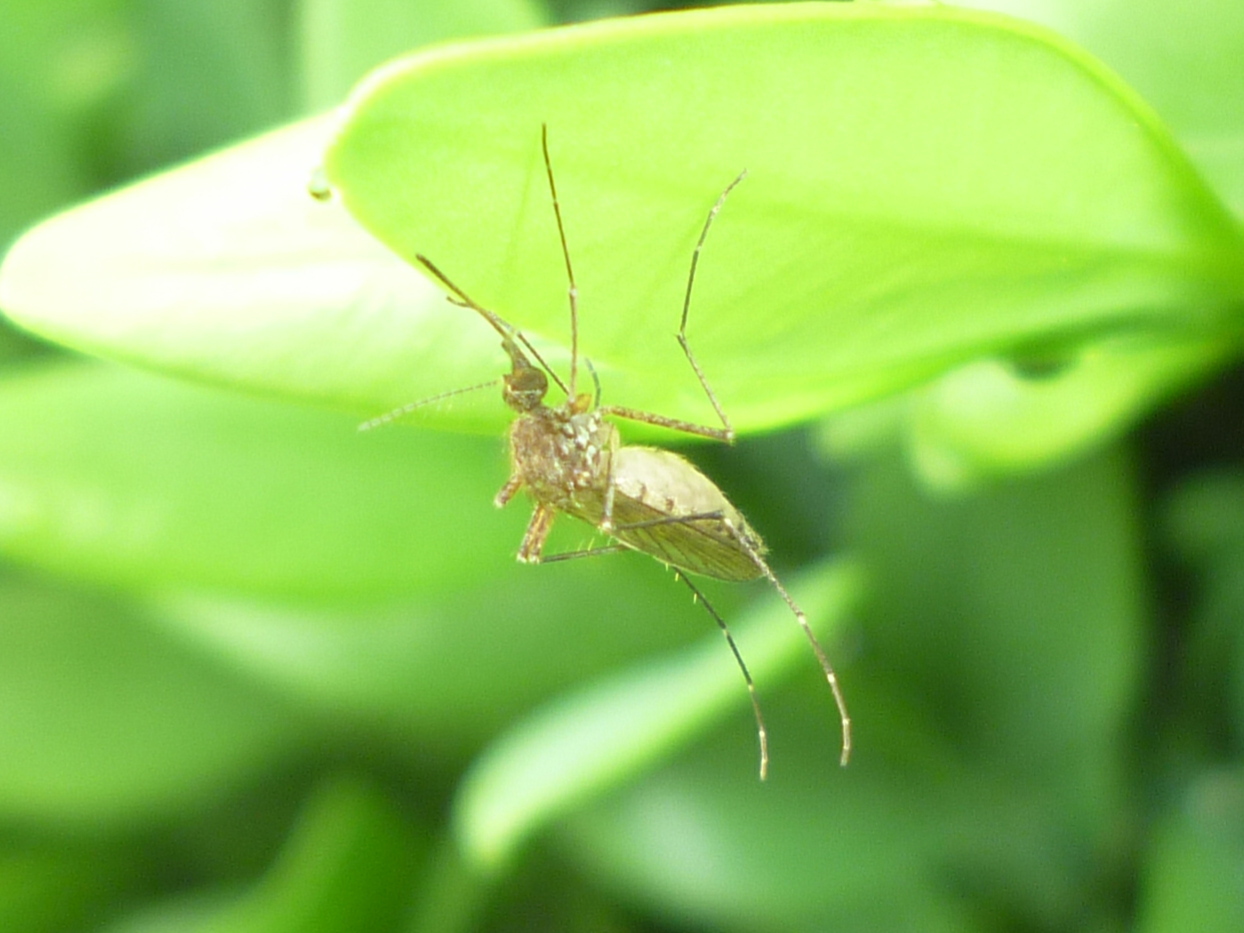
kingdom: Animalia
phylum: Arthropoda
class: Insecta
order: Diptera
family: Culicidae
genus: Aedes
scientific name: Aedes vexans
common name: Inland floodwater mosquito
